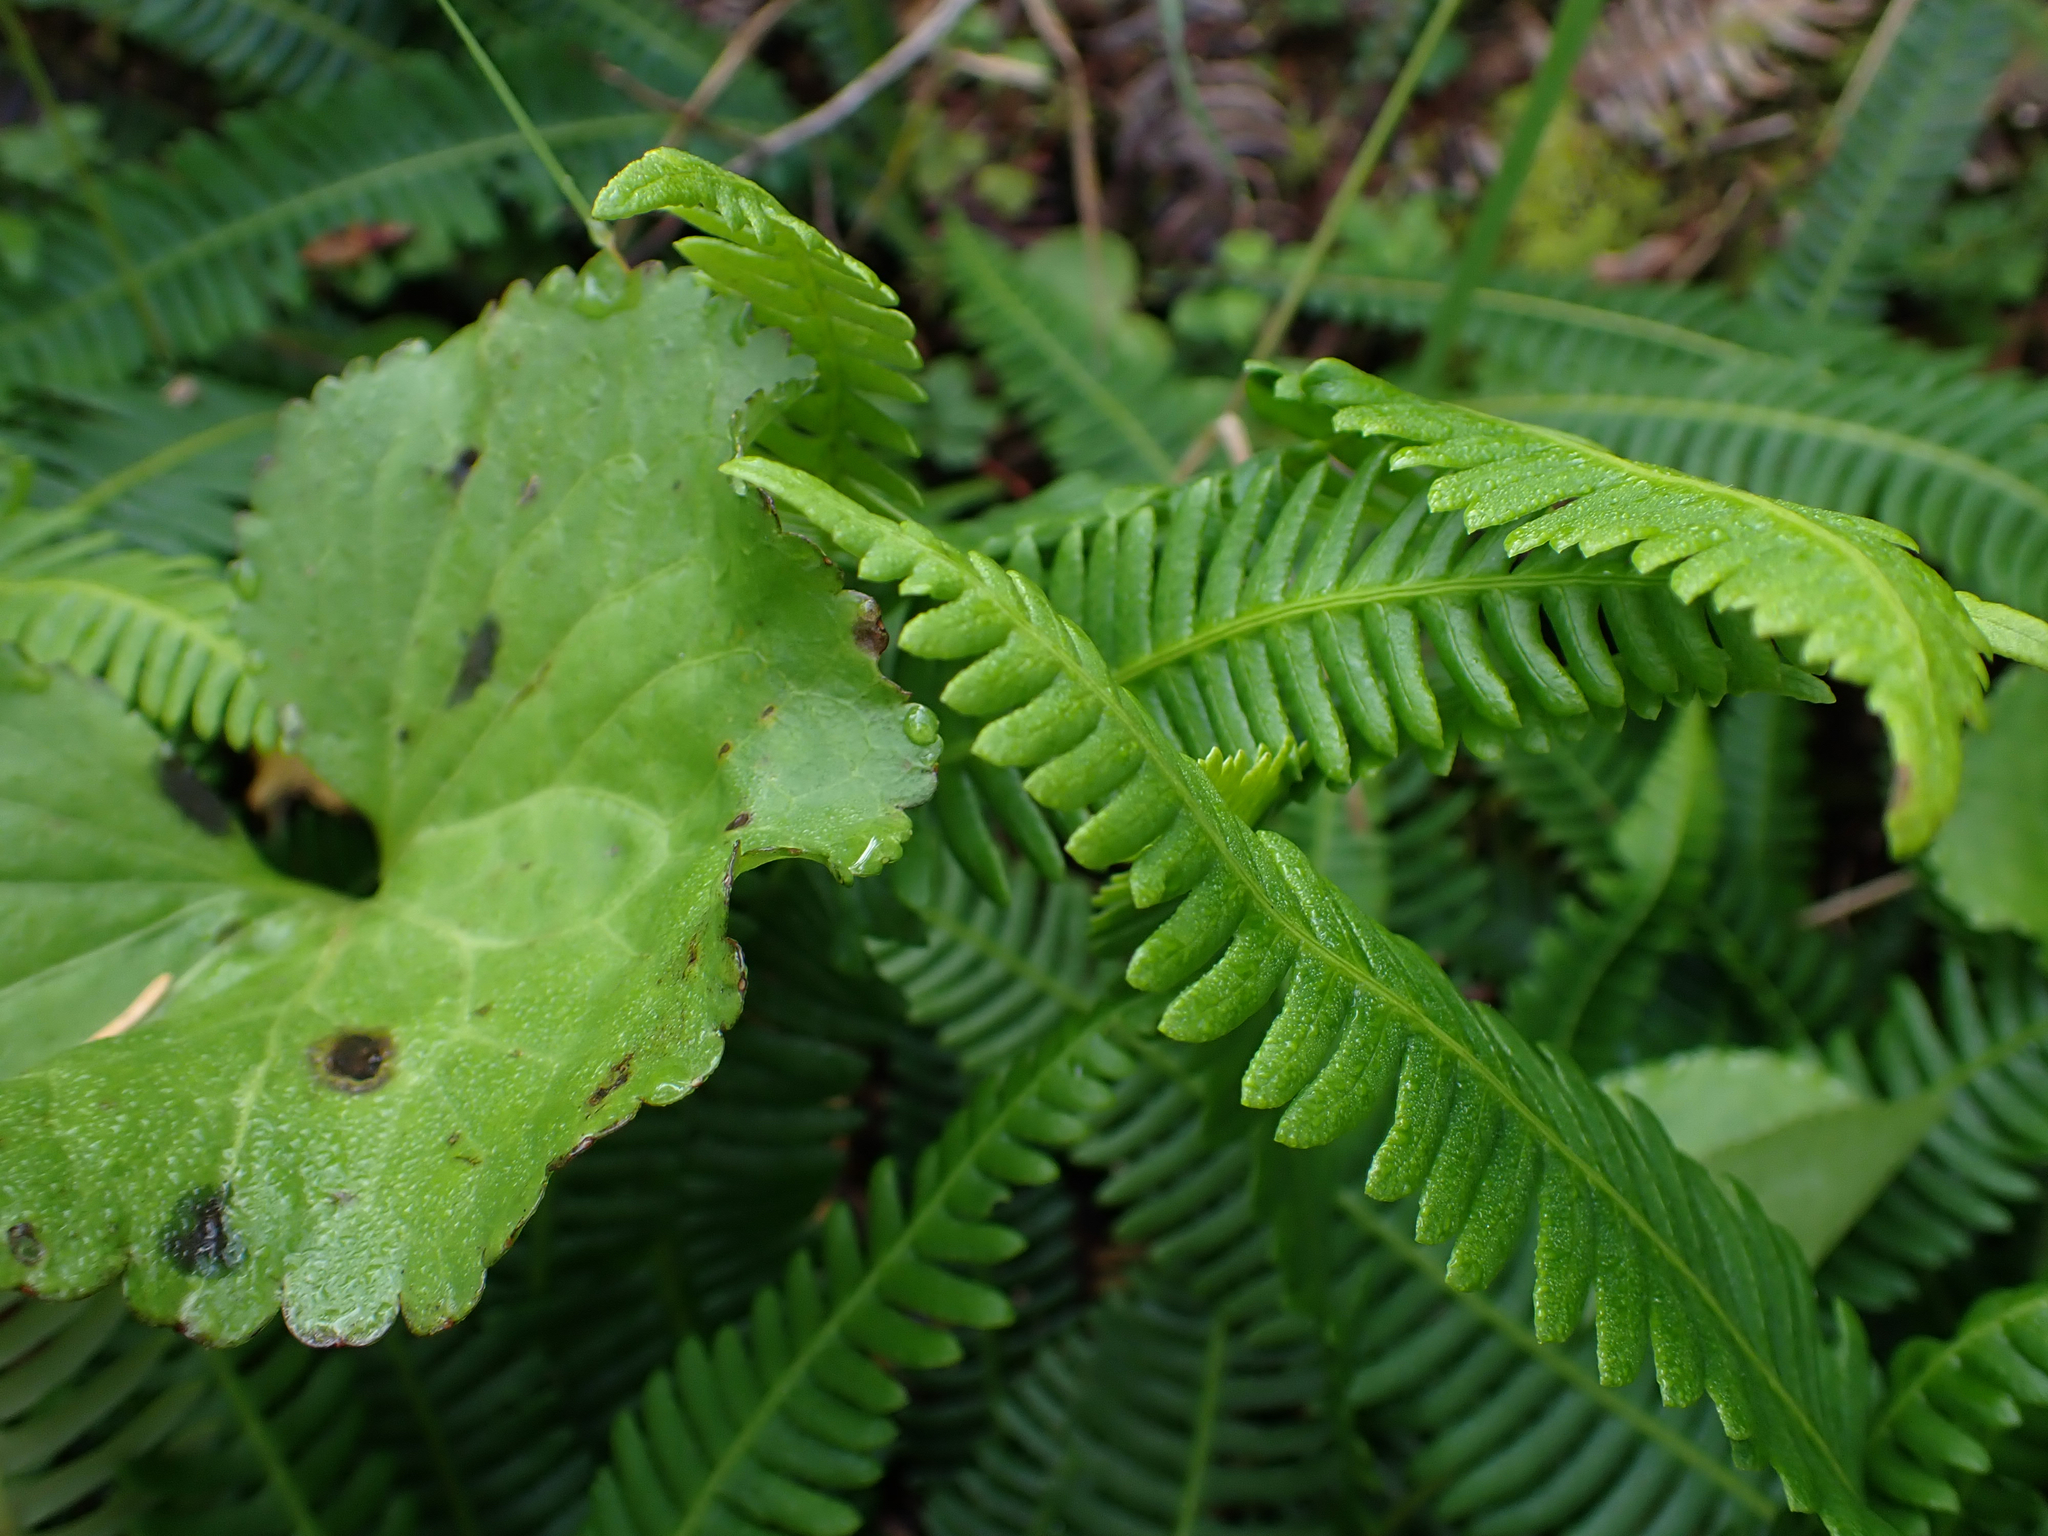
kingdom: Plantae
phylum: Tracheophyta
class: Polypodiopsida
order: Polypodiales
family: Blechnaceae
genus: Struthiopteris
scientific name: Struthiopteris spicant
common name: Deer fern
